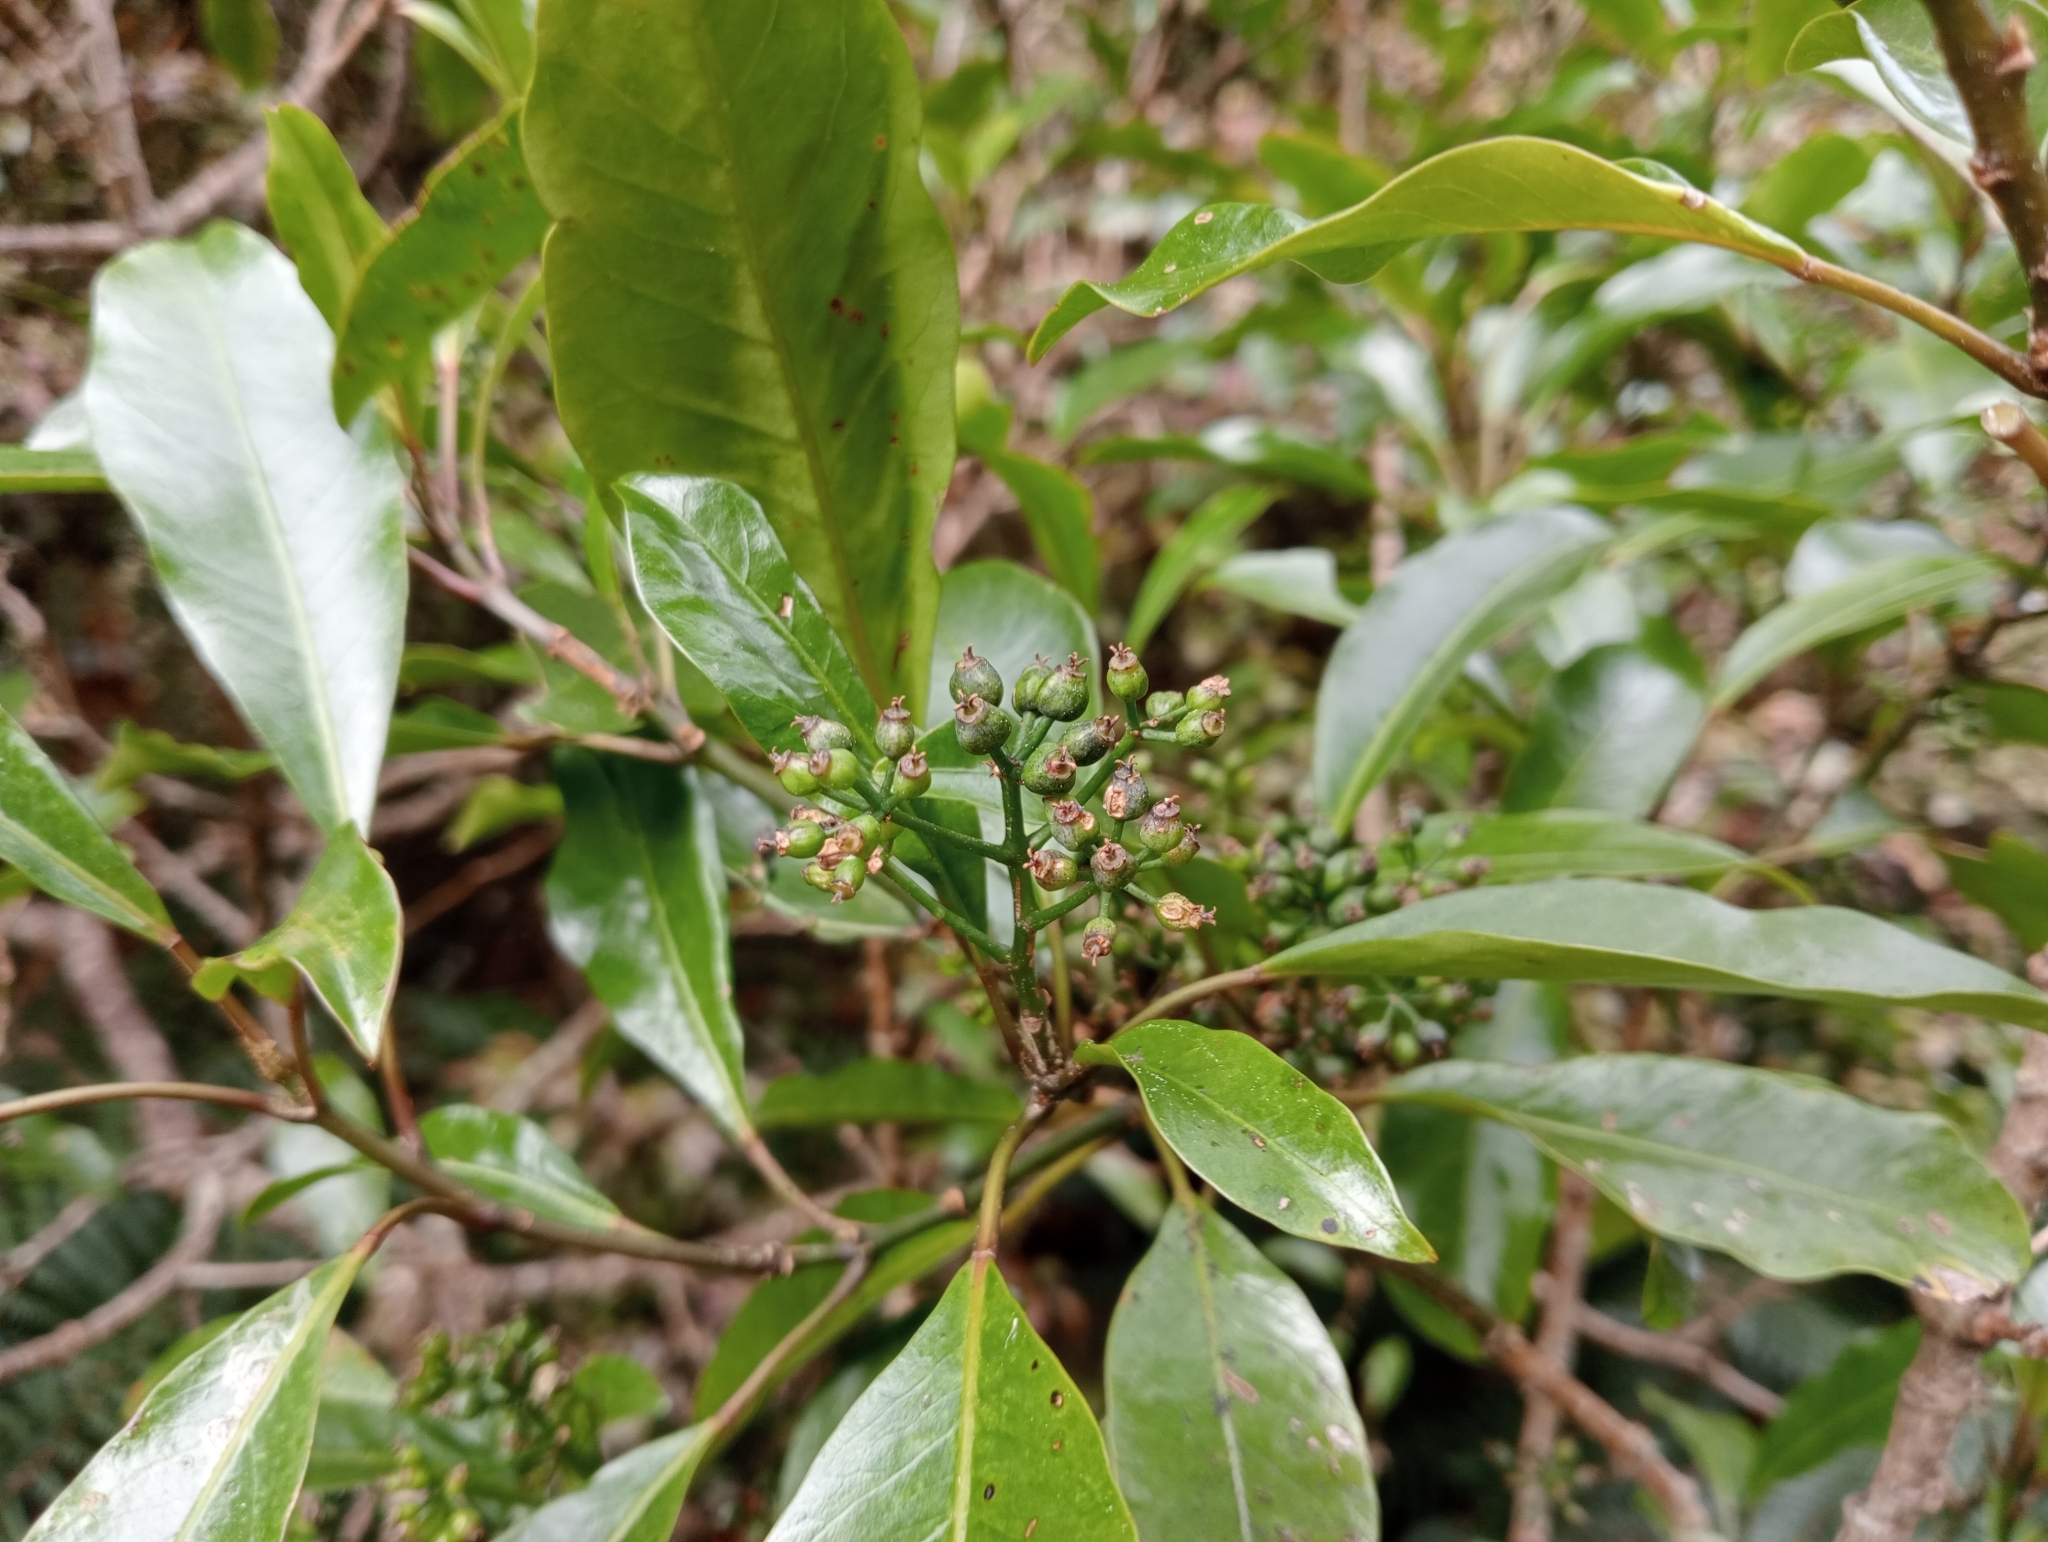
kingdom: Plantae
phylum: Tracheophyta
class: Magnoliopsida
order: Apiales
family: Araliaceae
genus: Raukaua
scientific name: Raukaua simplex
